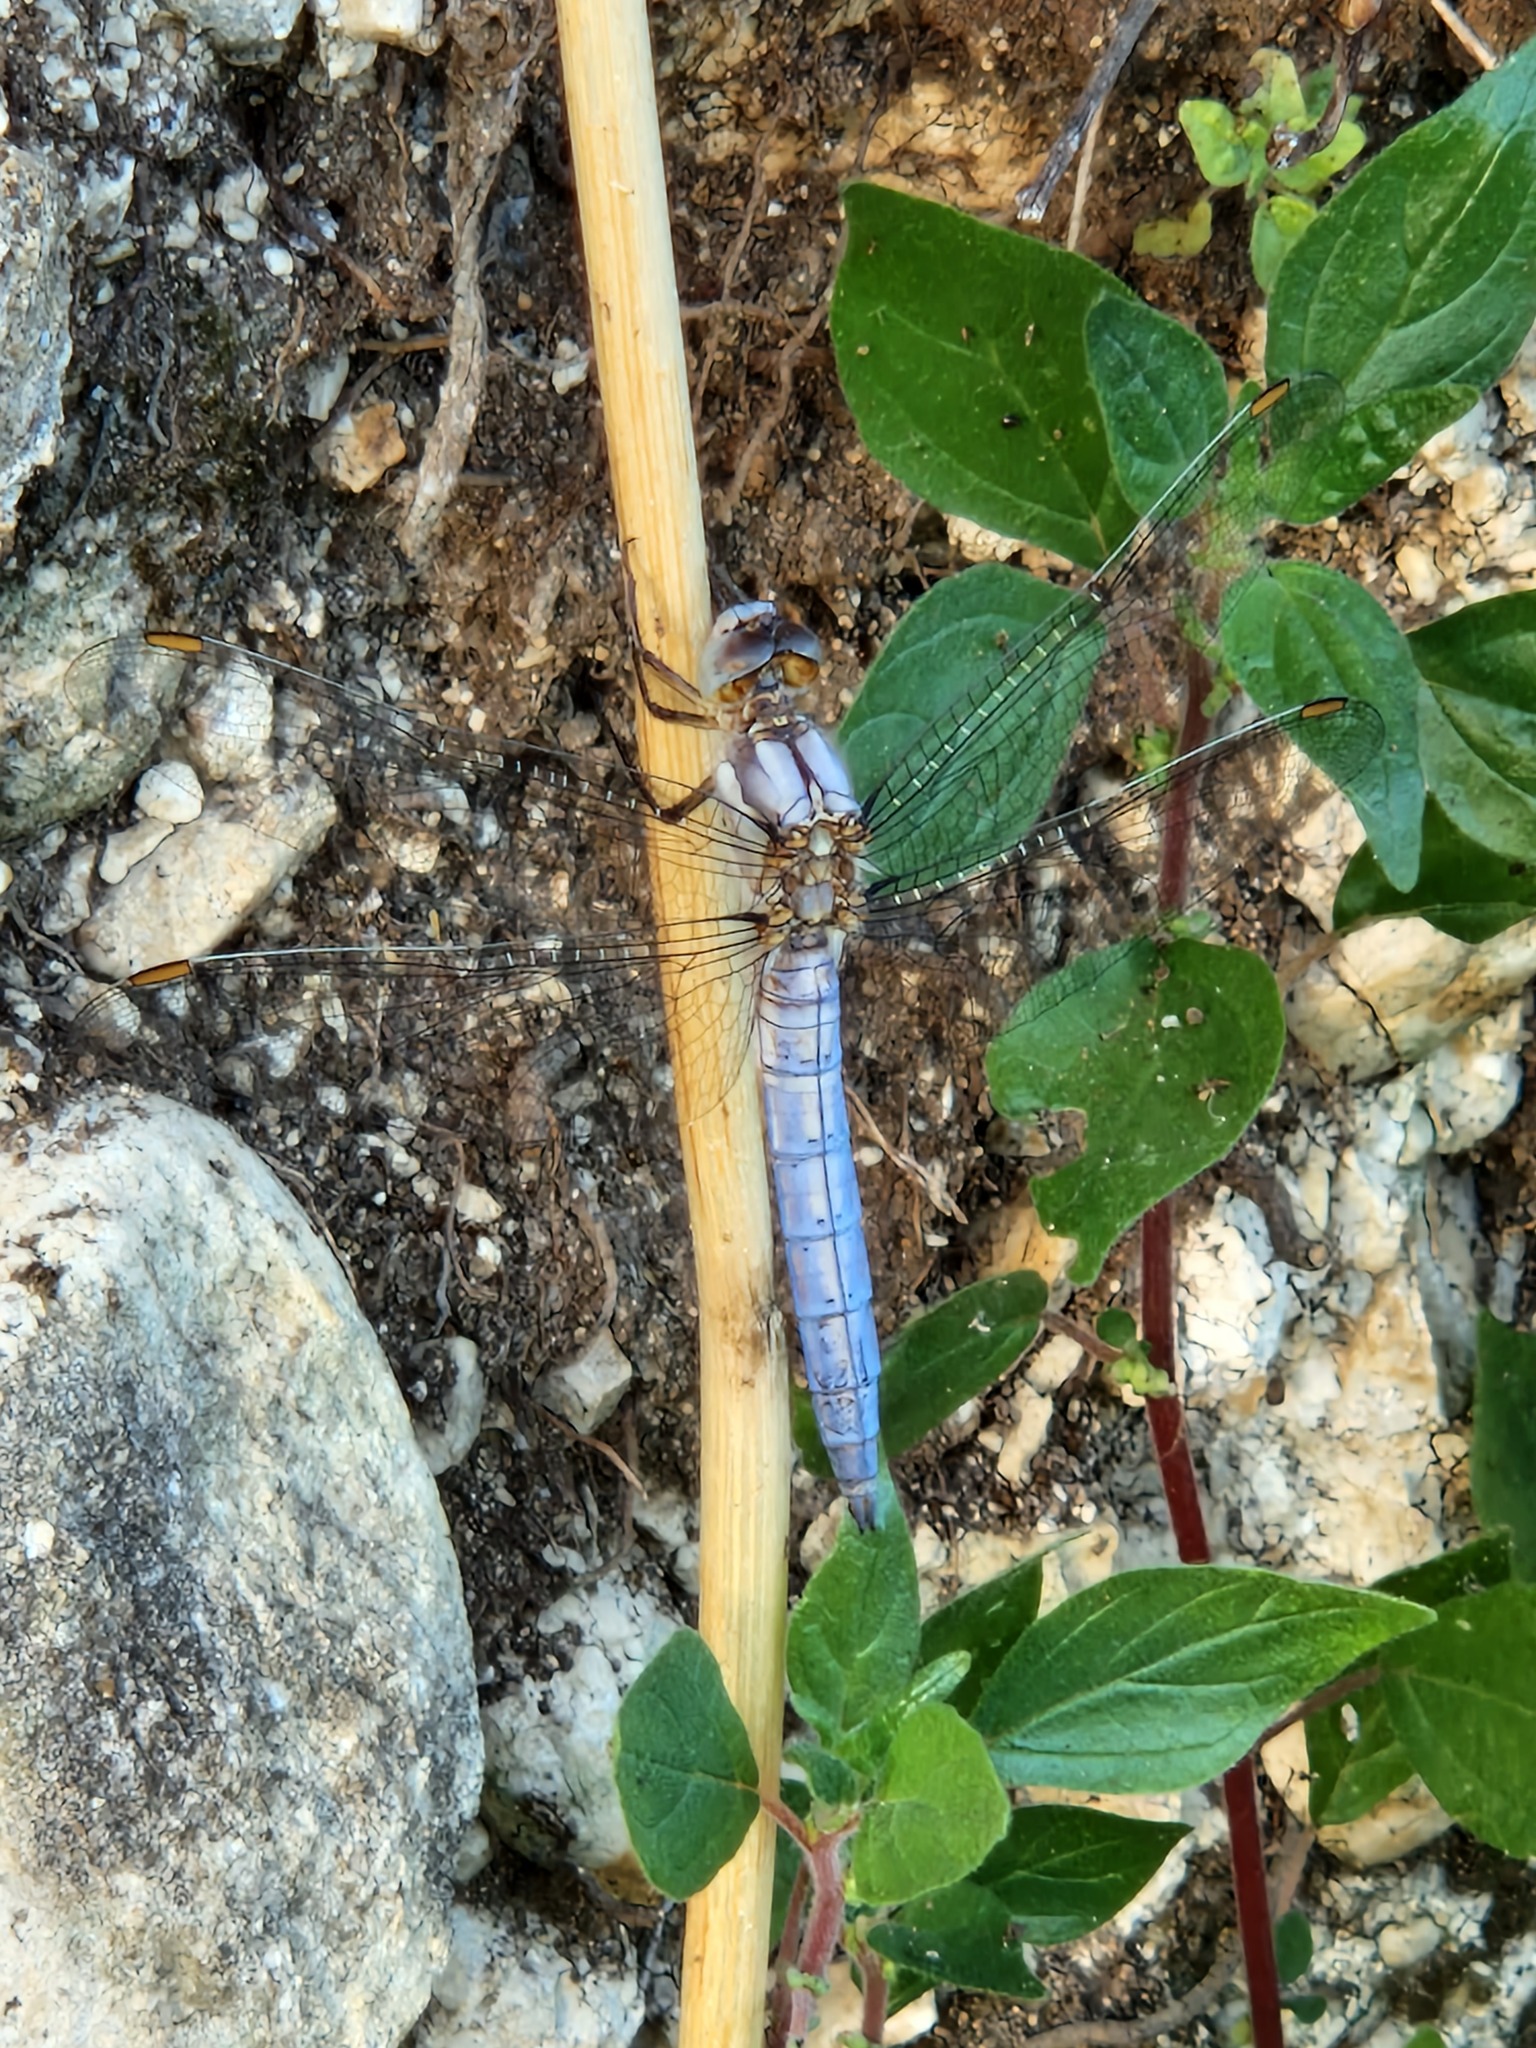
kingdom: Animalia
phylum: Arthropoda
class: Insecta
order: Odonata
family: Libellulidae
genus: Orthetrum
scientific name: Orthetrum brunneum
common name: Southern skimmer
